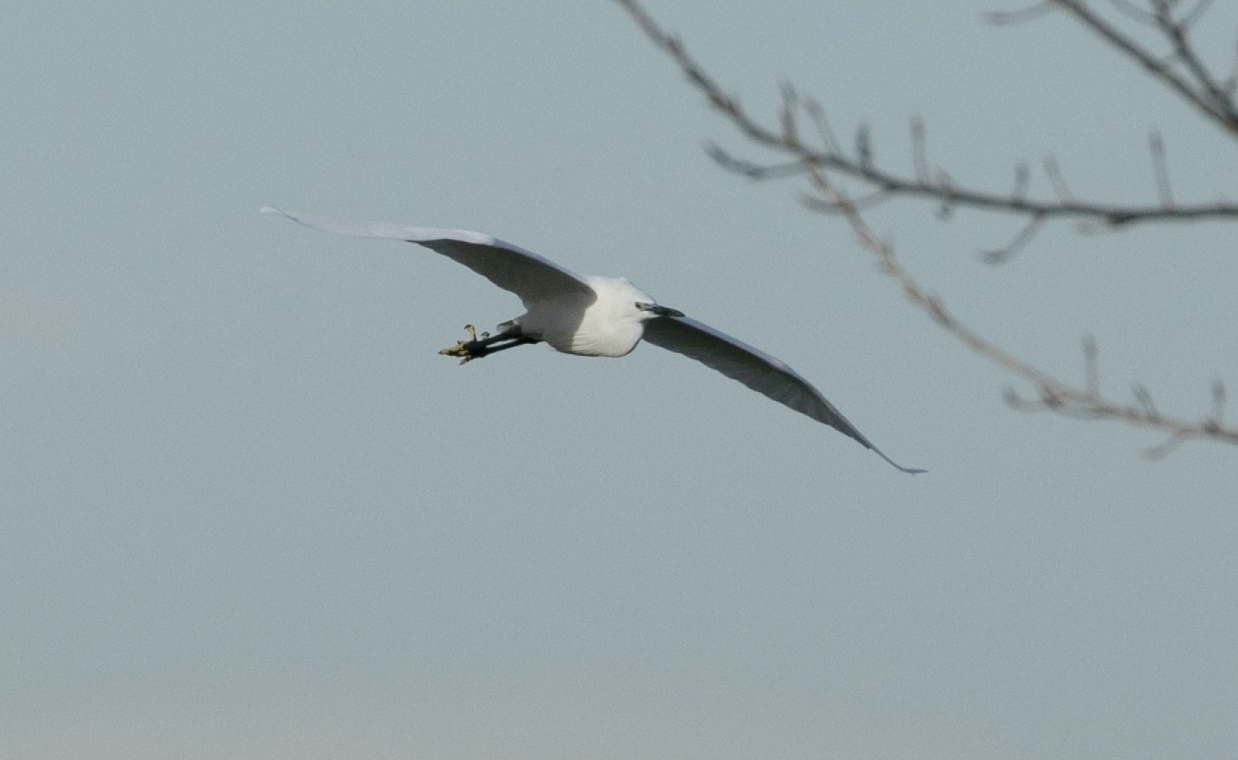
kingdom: Animalia
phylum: Chordata
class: Aves
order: Pelecaniformes
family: Ardeidae
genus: Egretta
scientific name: Egretta garzetta
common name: Little egret
